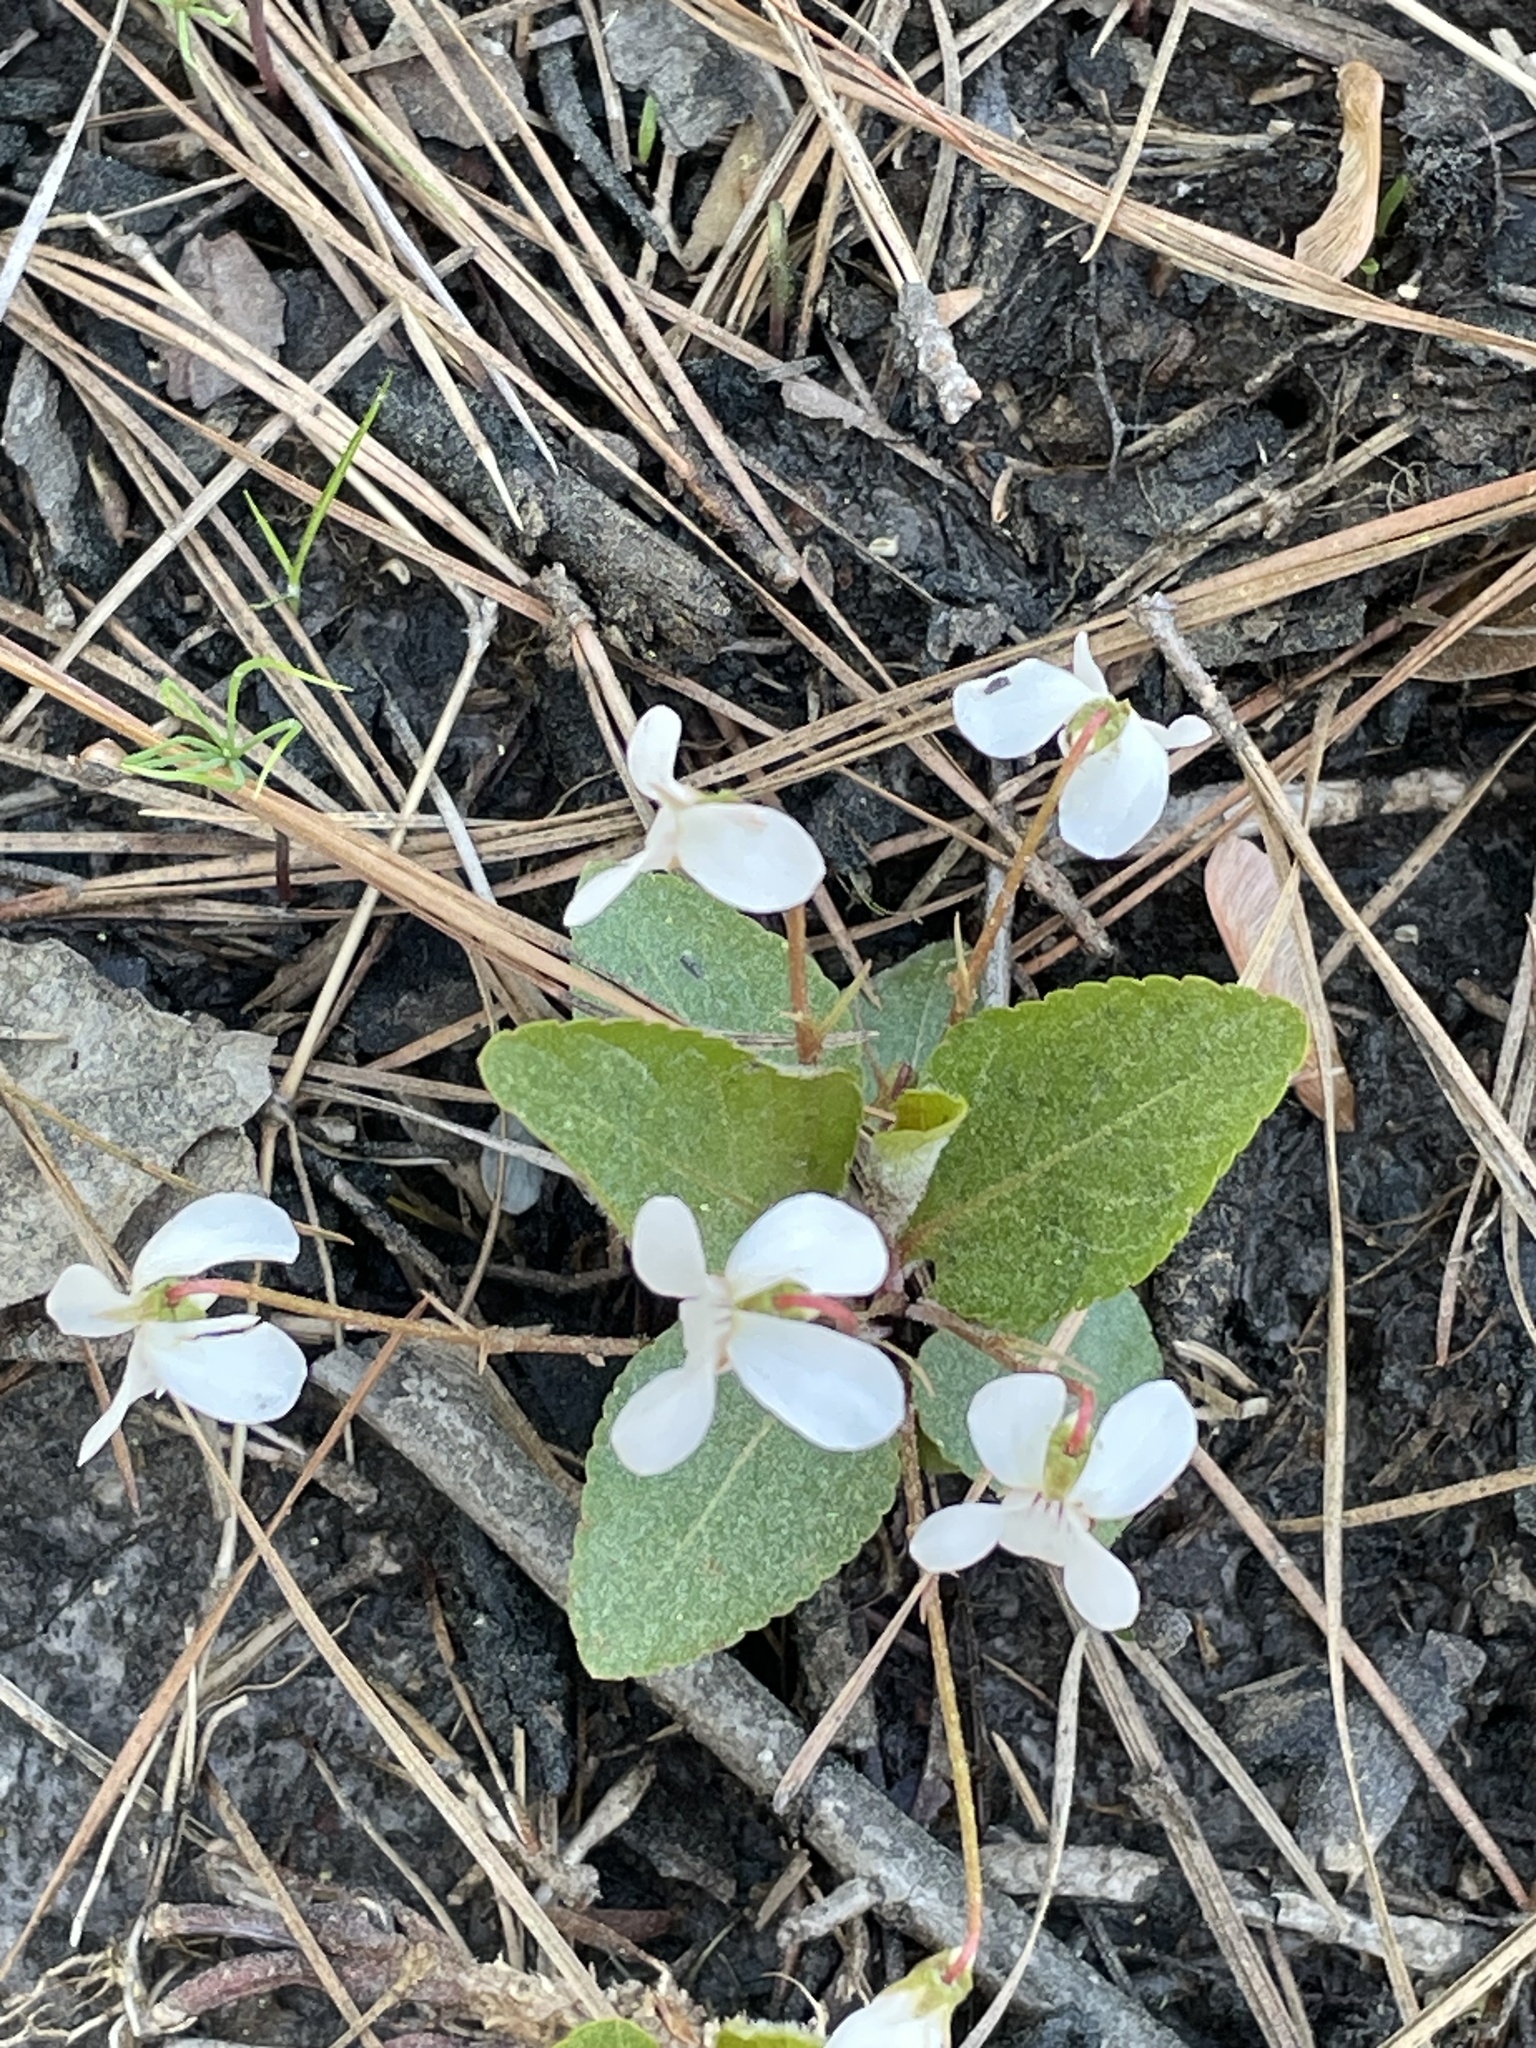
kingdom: Plantae
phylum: Tracheophyta
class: Magnoliopsida
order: Malpighiales
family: Violaceae
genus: Viola
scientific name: Viola primulifolia
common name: Primrose-leaf violet
